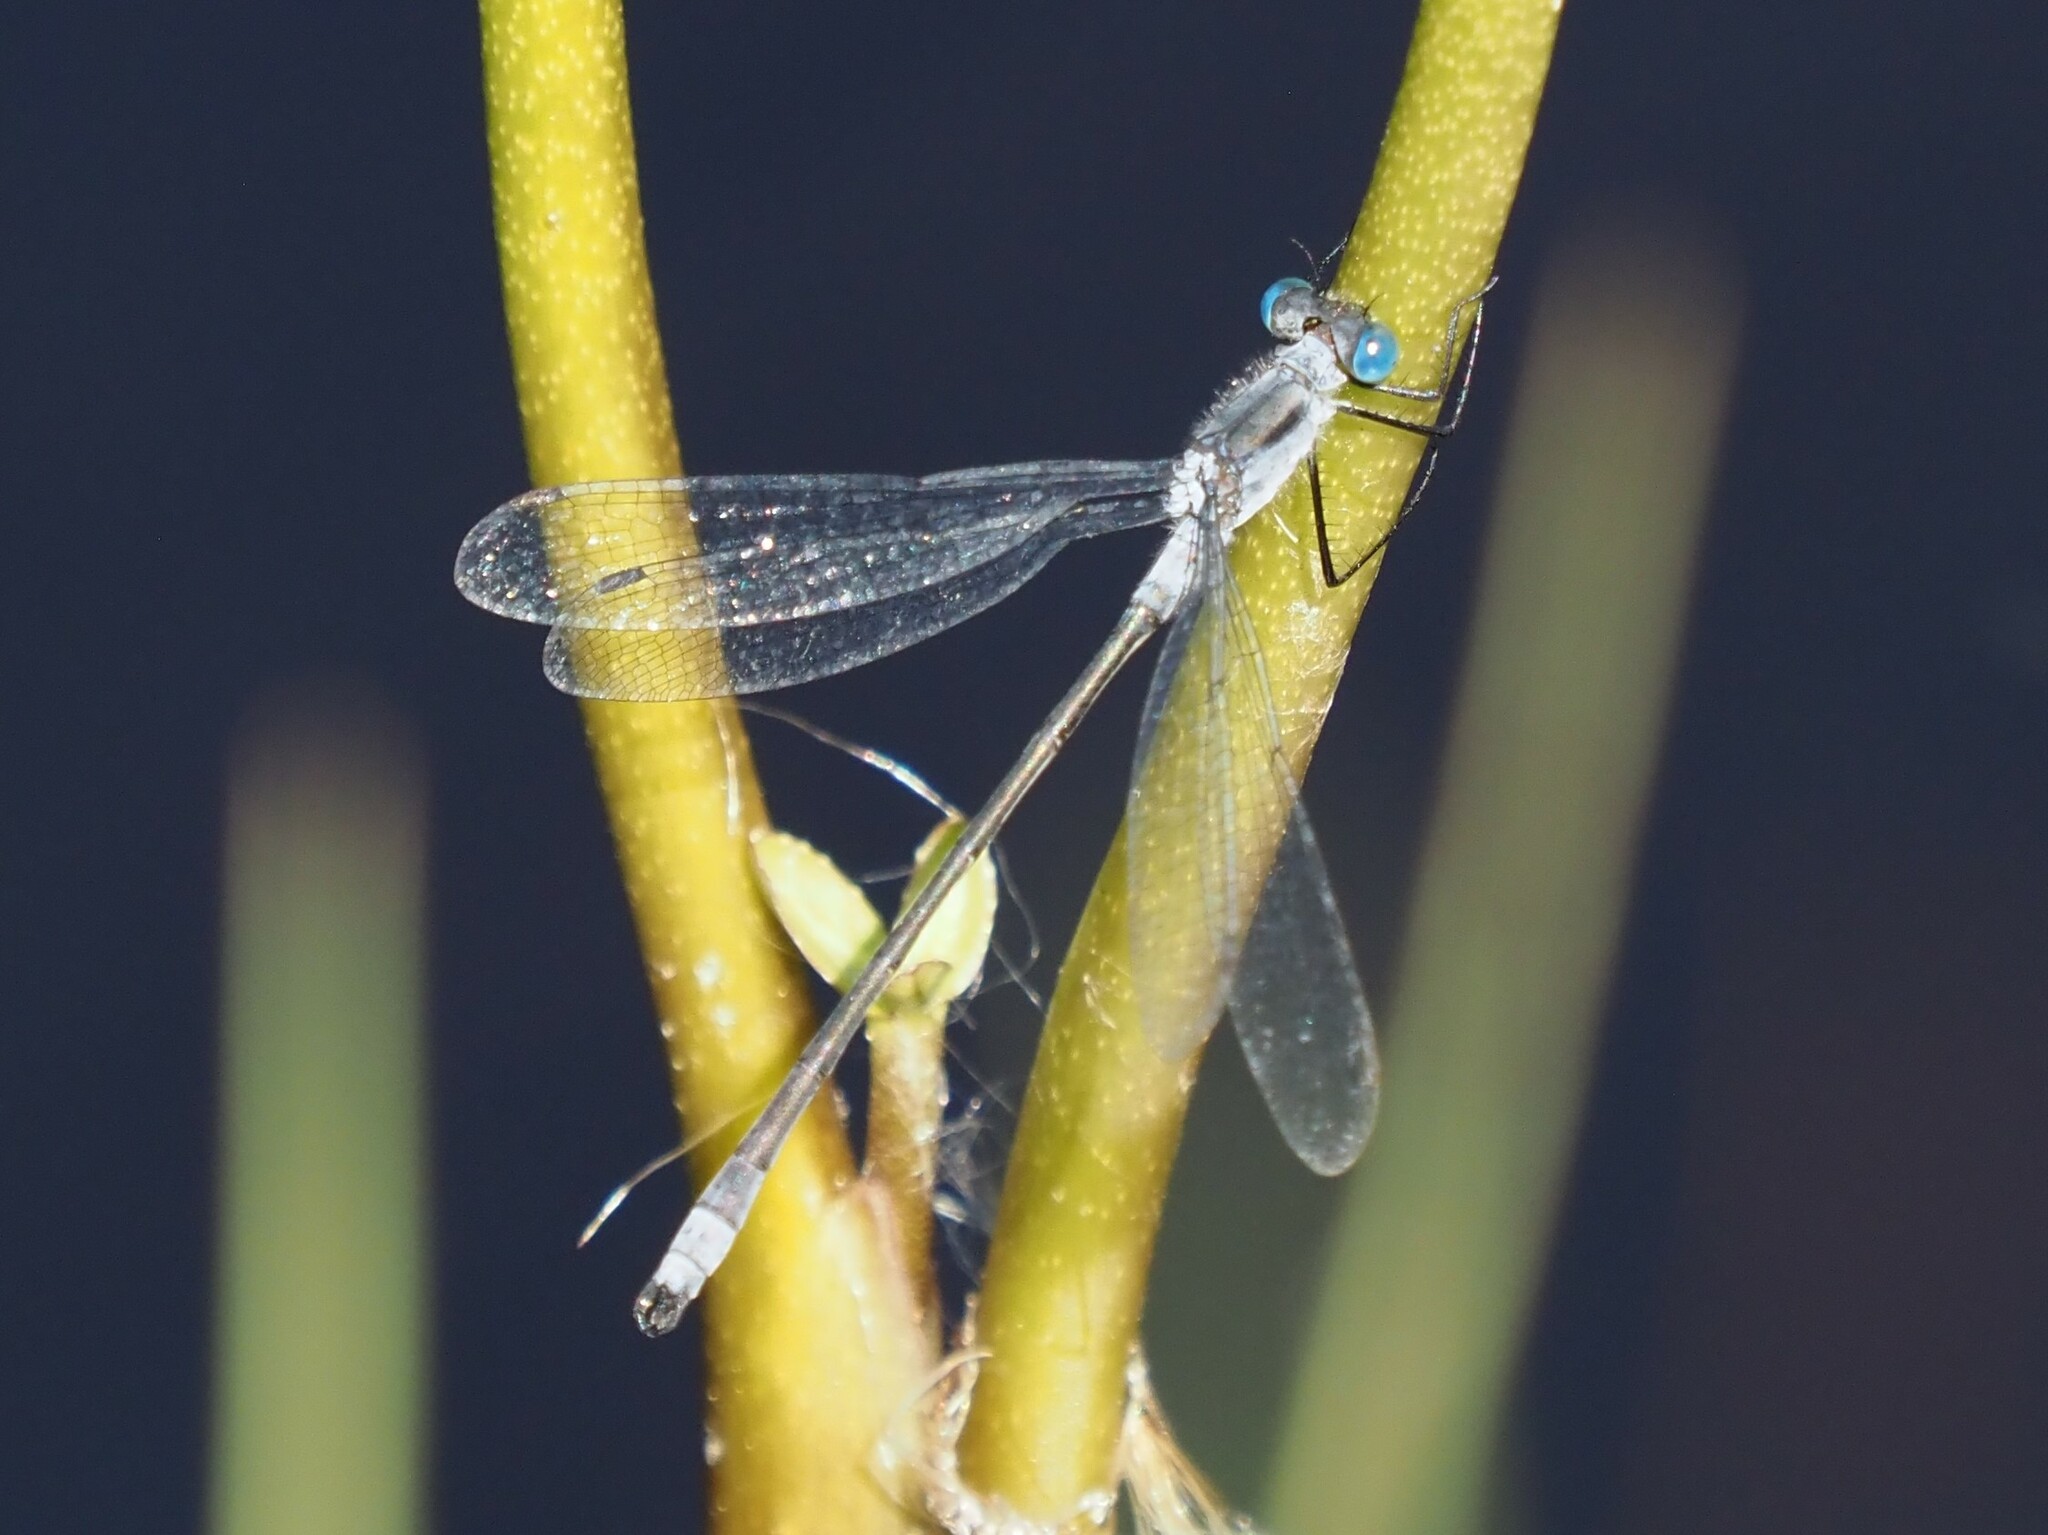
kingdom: Animalia
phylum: Arthropoda
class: Insecta
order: Odonata
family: Lestidae
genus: Lestes
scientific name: Lestes disjunctus
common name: Northern spreadwing
